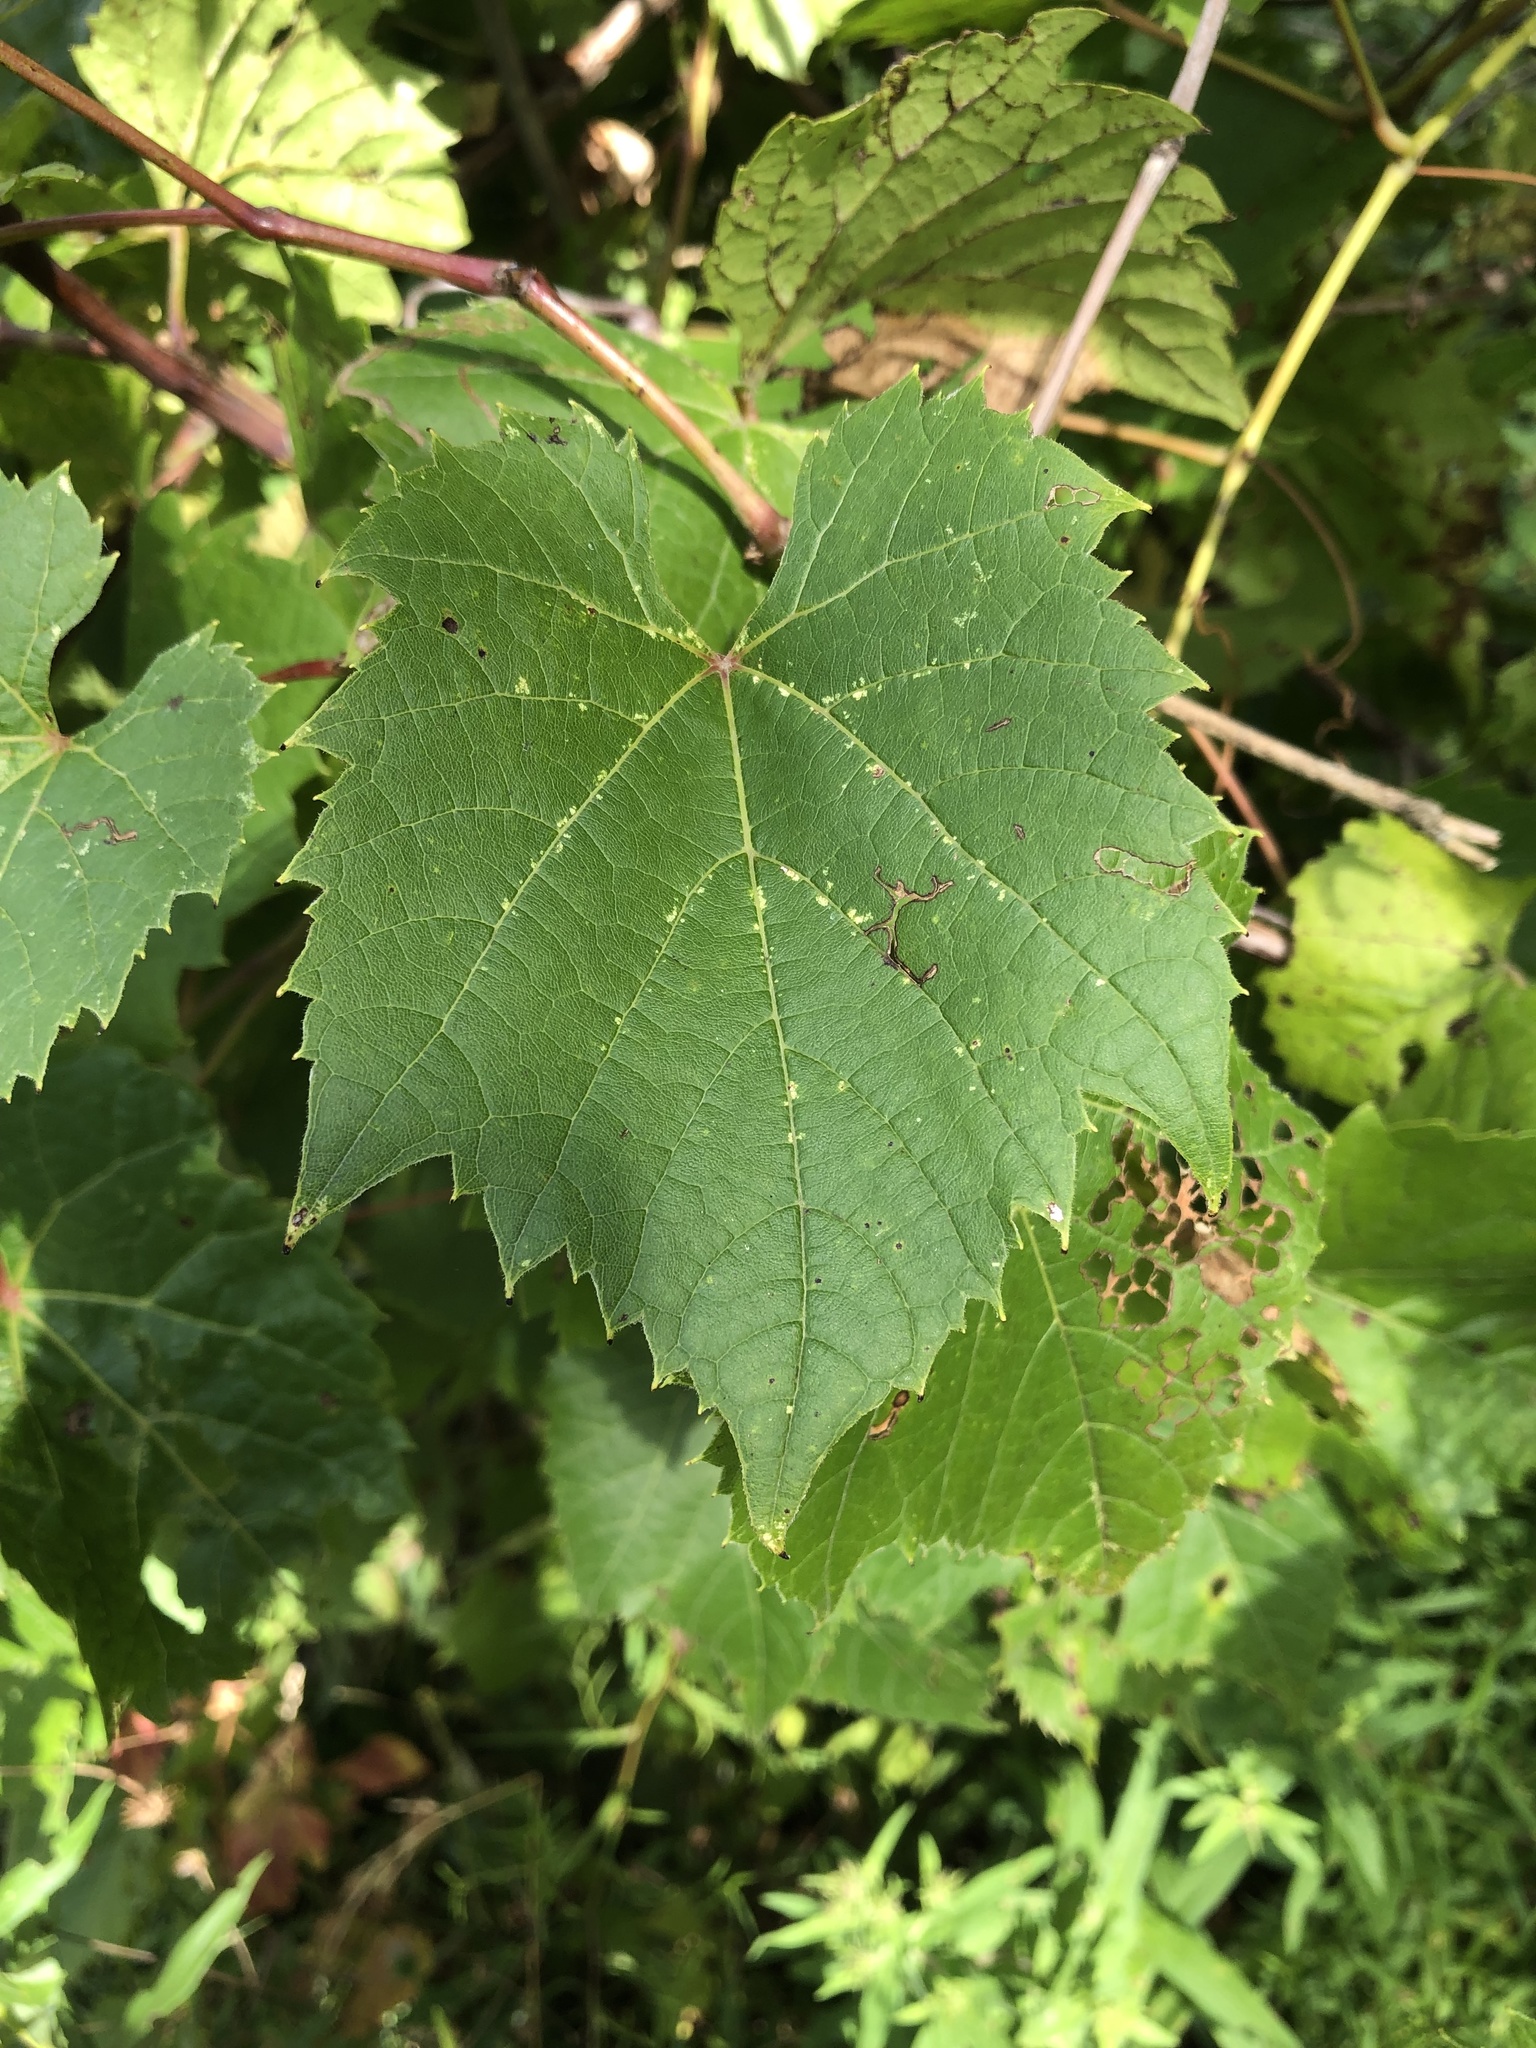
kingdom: Plantae
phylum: Tracheophyta
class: Magnoliopsida
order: Vitales
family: Vitaceae
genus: Vitis
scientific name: Vitis riparia
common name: Frost grape
